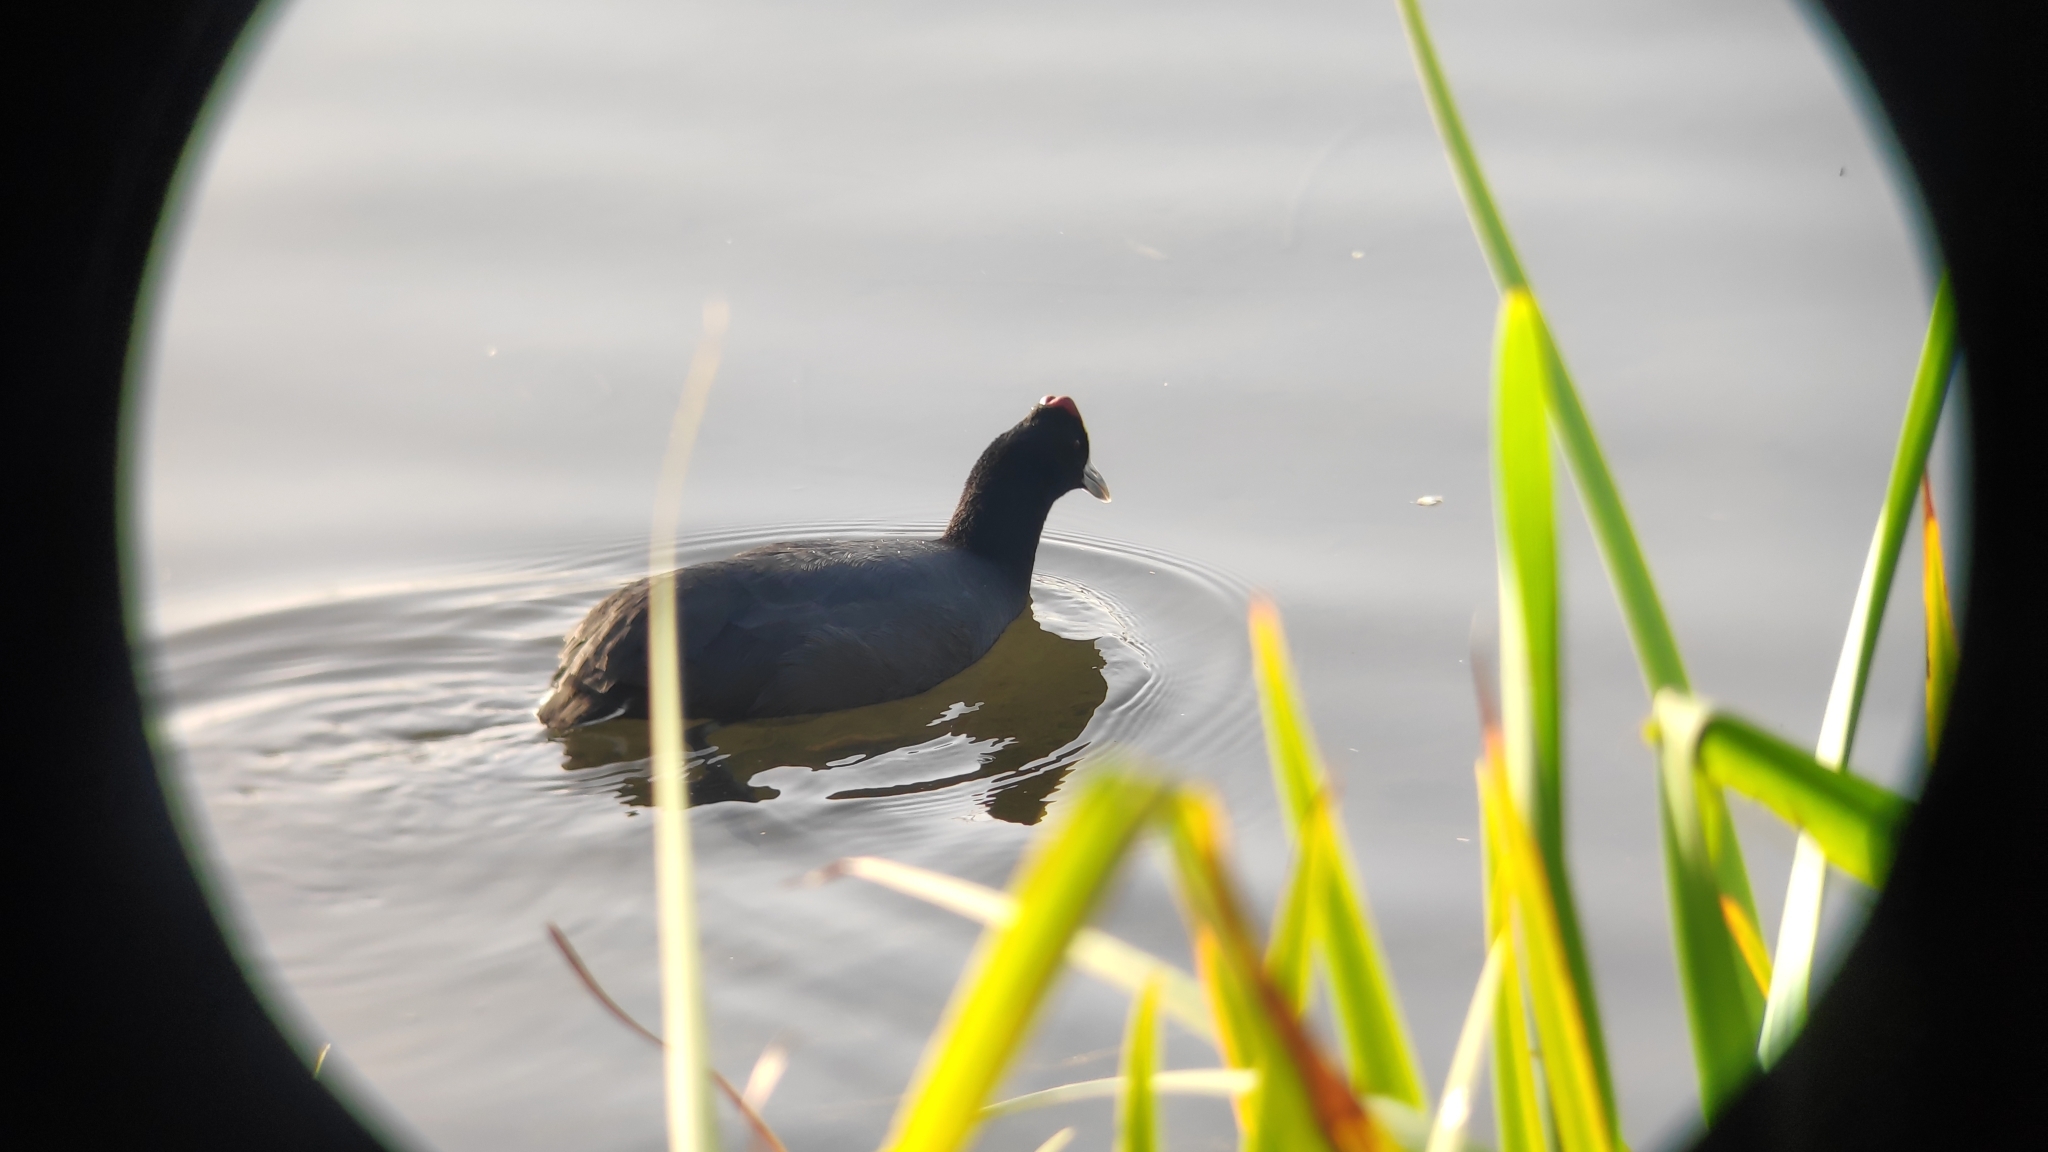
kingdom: Animalia
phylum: Chordata
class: Aves
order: Gruiformes
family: Rallidae
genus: Fulica
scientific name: Fulica cristata
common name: Red-knobbed coot
